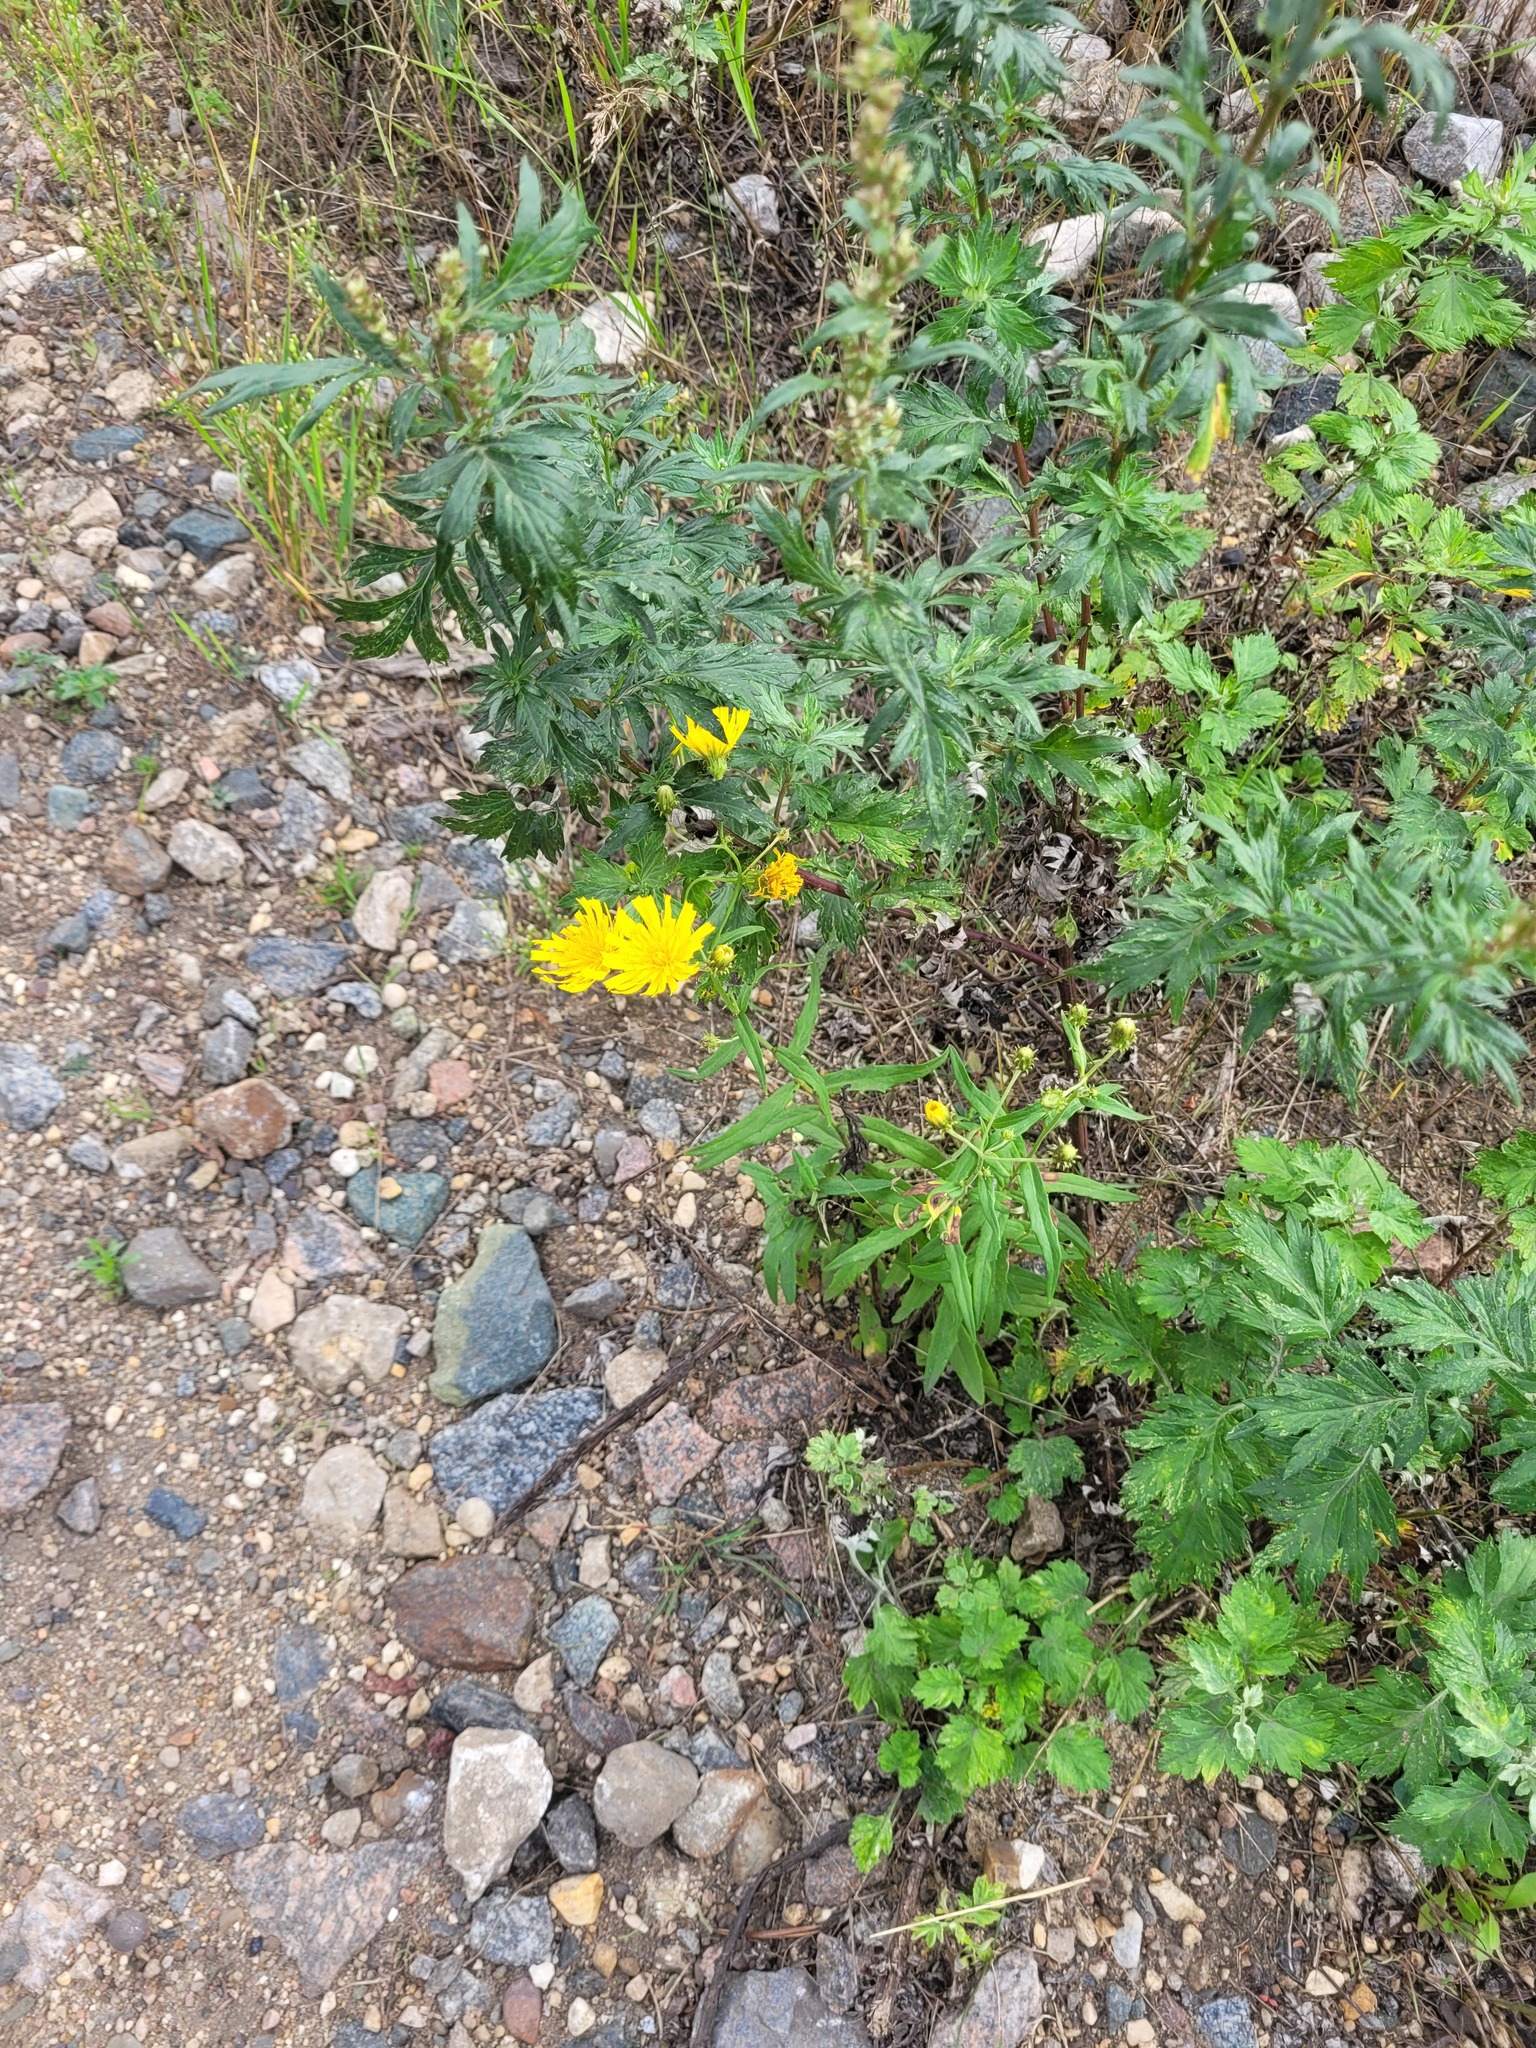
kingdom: Plantae
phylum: Tracheophyta
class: Magnoliopsida
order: Asterales
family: Asteraceae
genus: Hieracium
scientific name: Hieracium umbellatum
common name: Northern hawkweed
